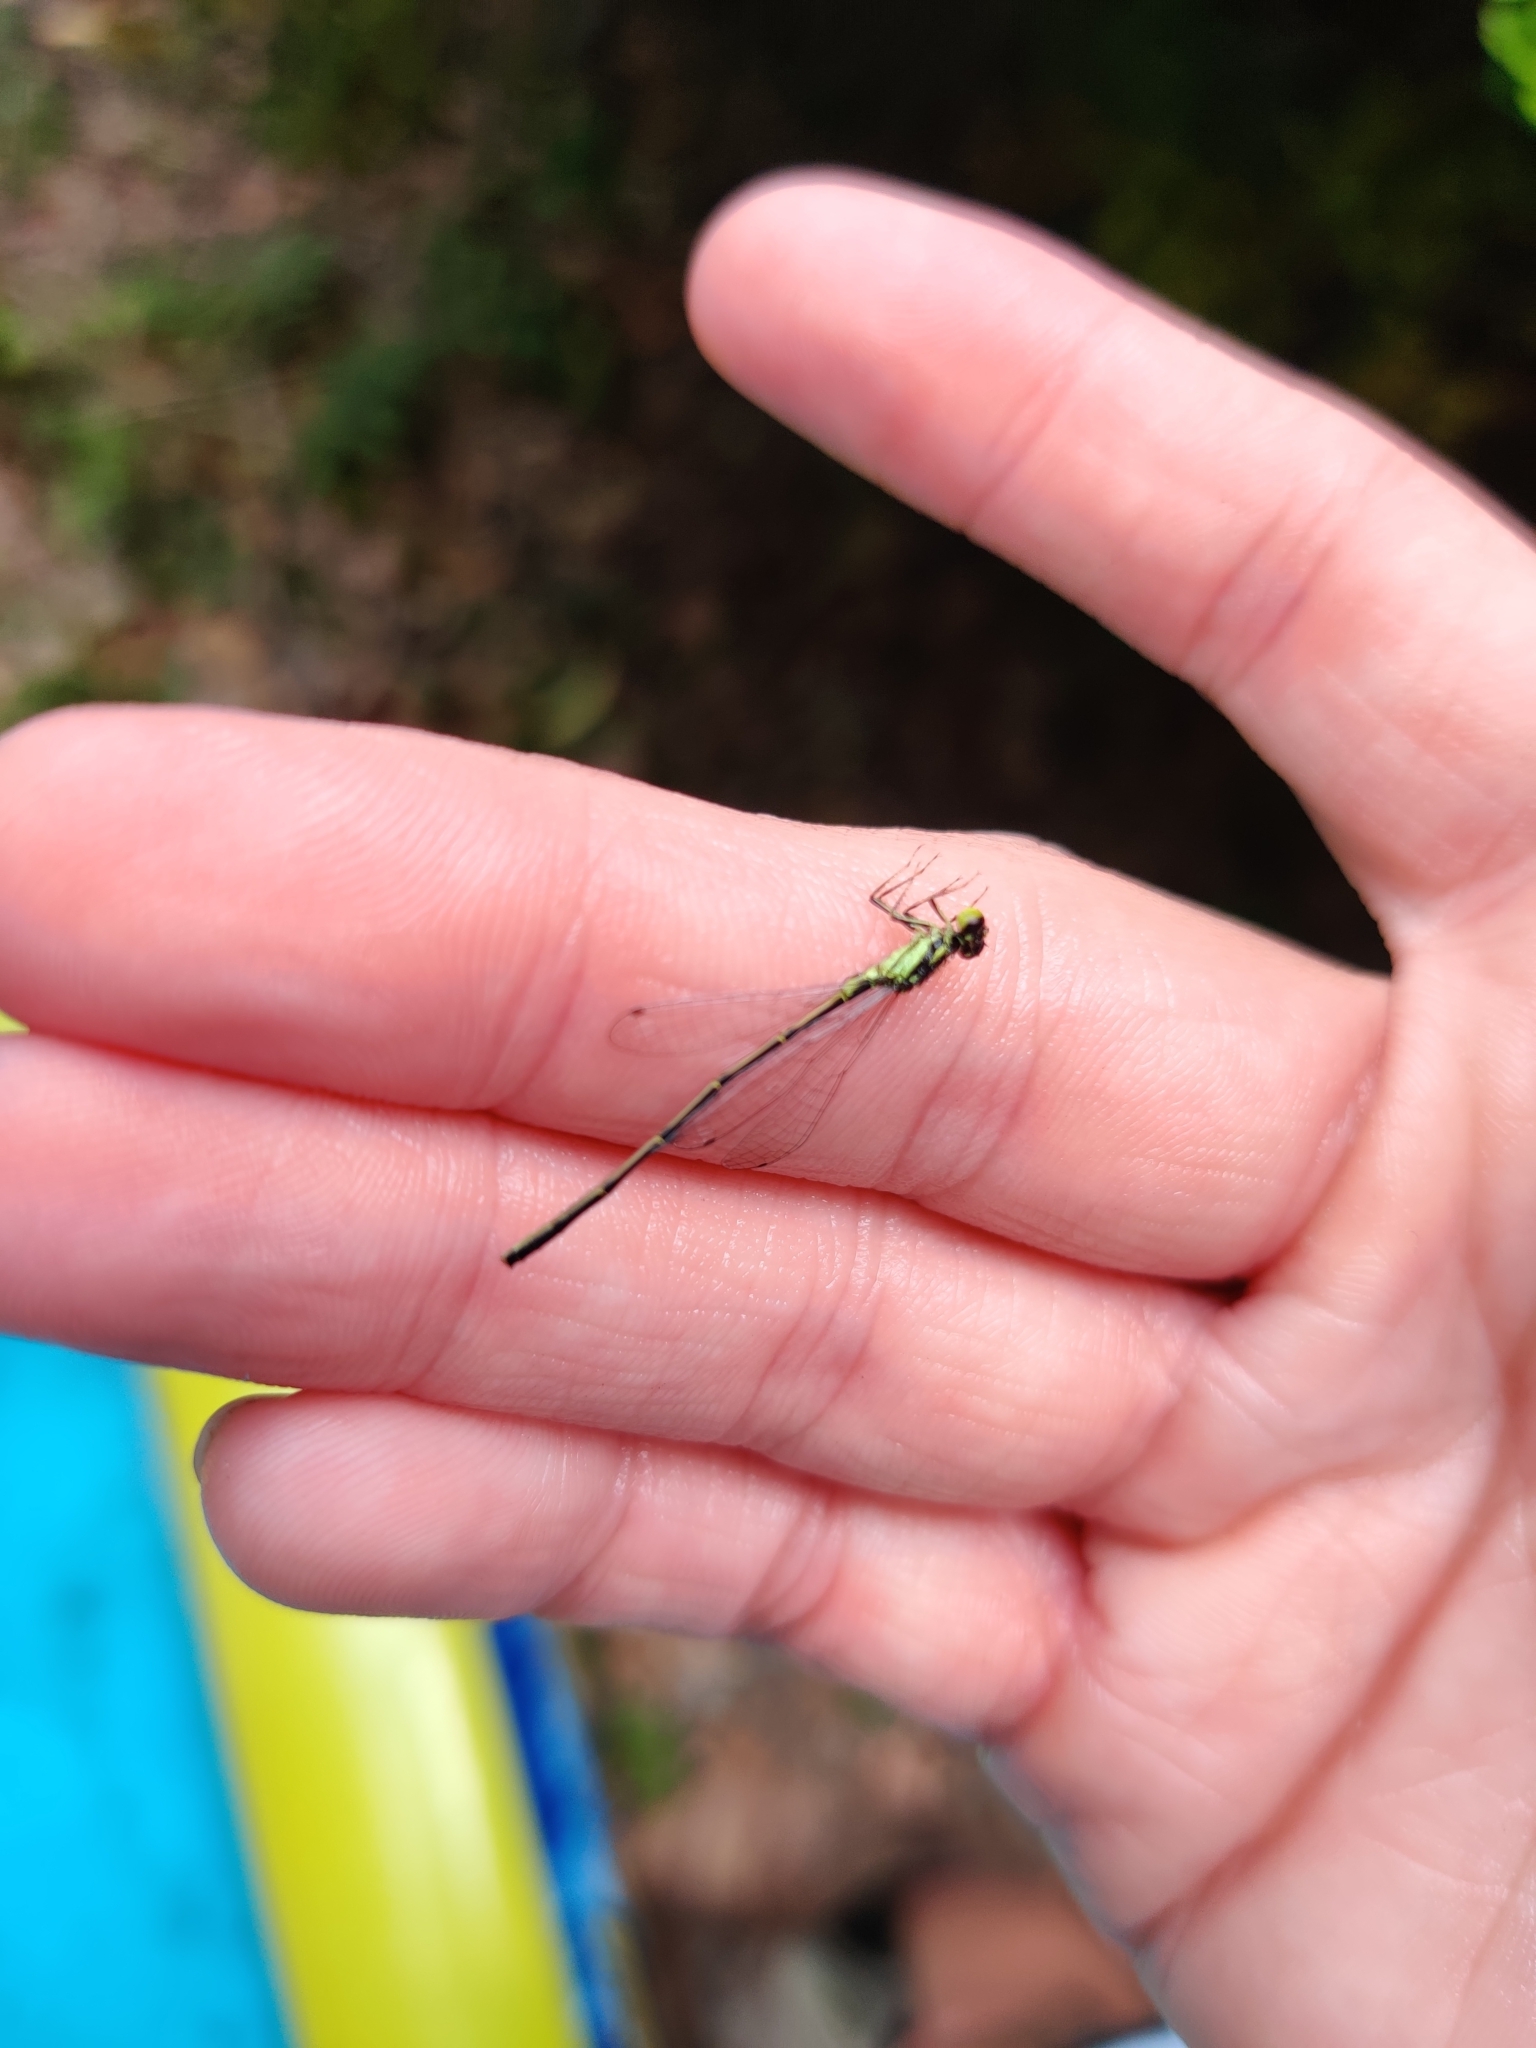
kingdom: Animalia
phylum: Arthropoda
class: Insecta
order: Odonata
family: Coenagrionidae
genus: Ischnura
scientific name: Ischnura posita
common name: Fragile forktail
